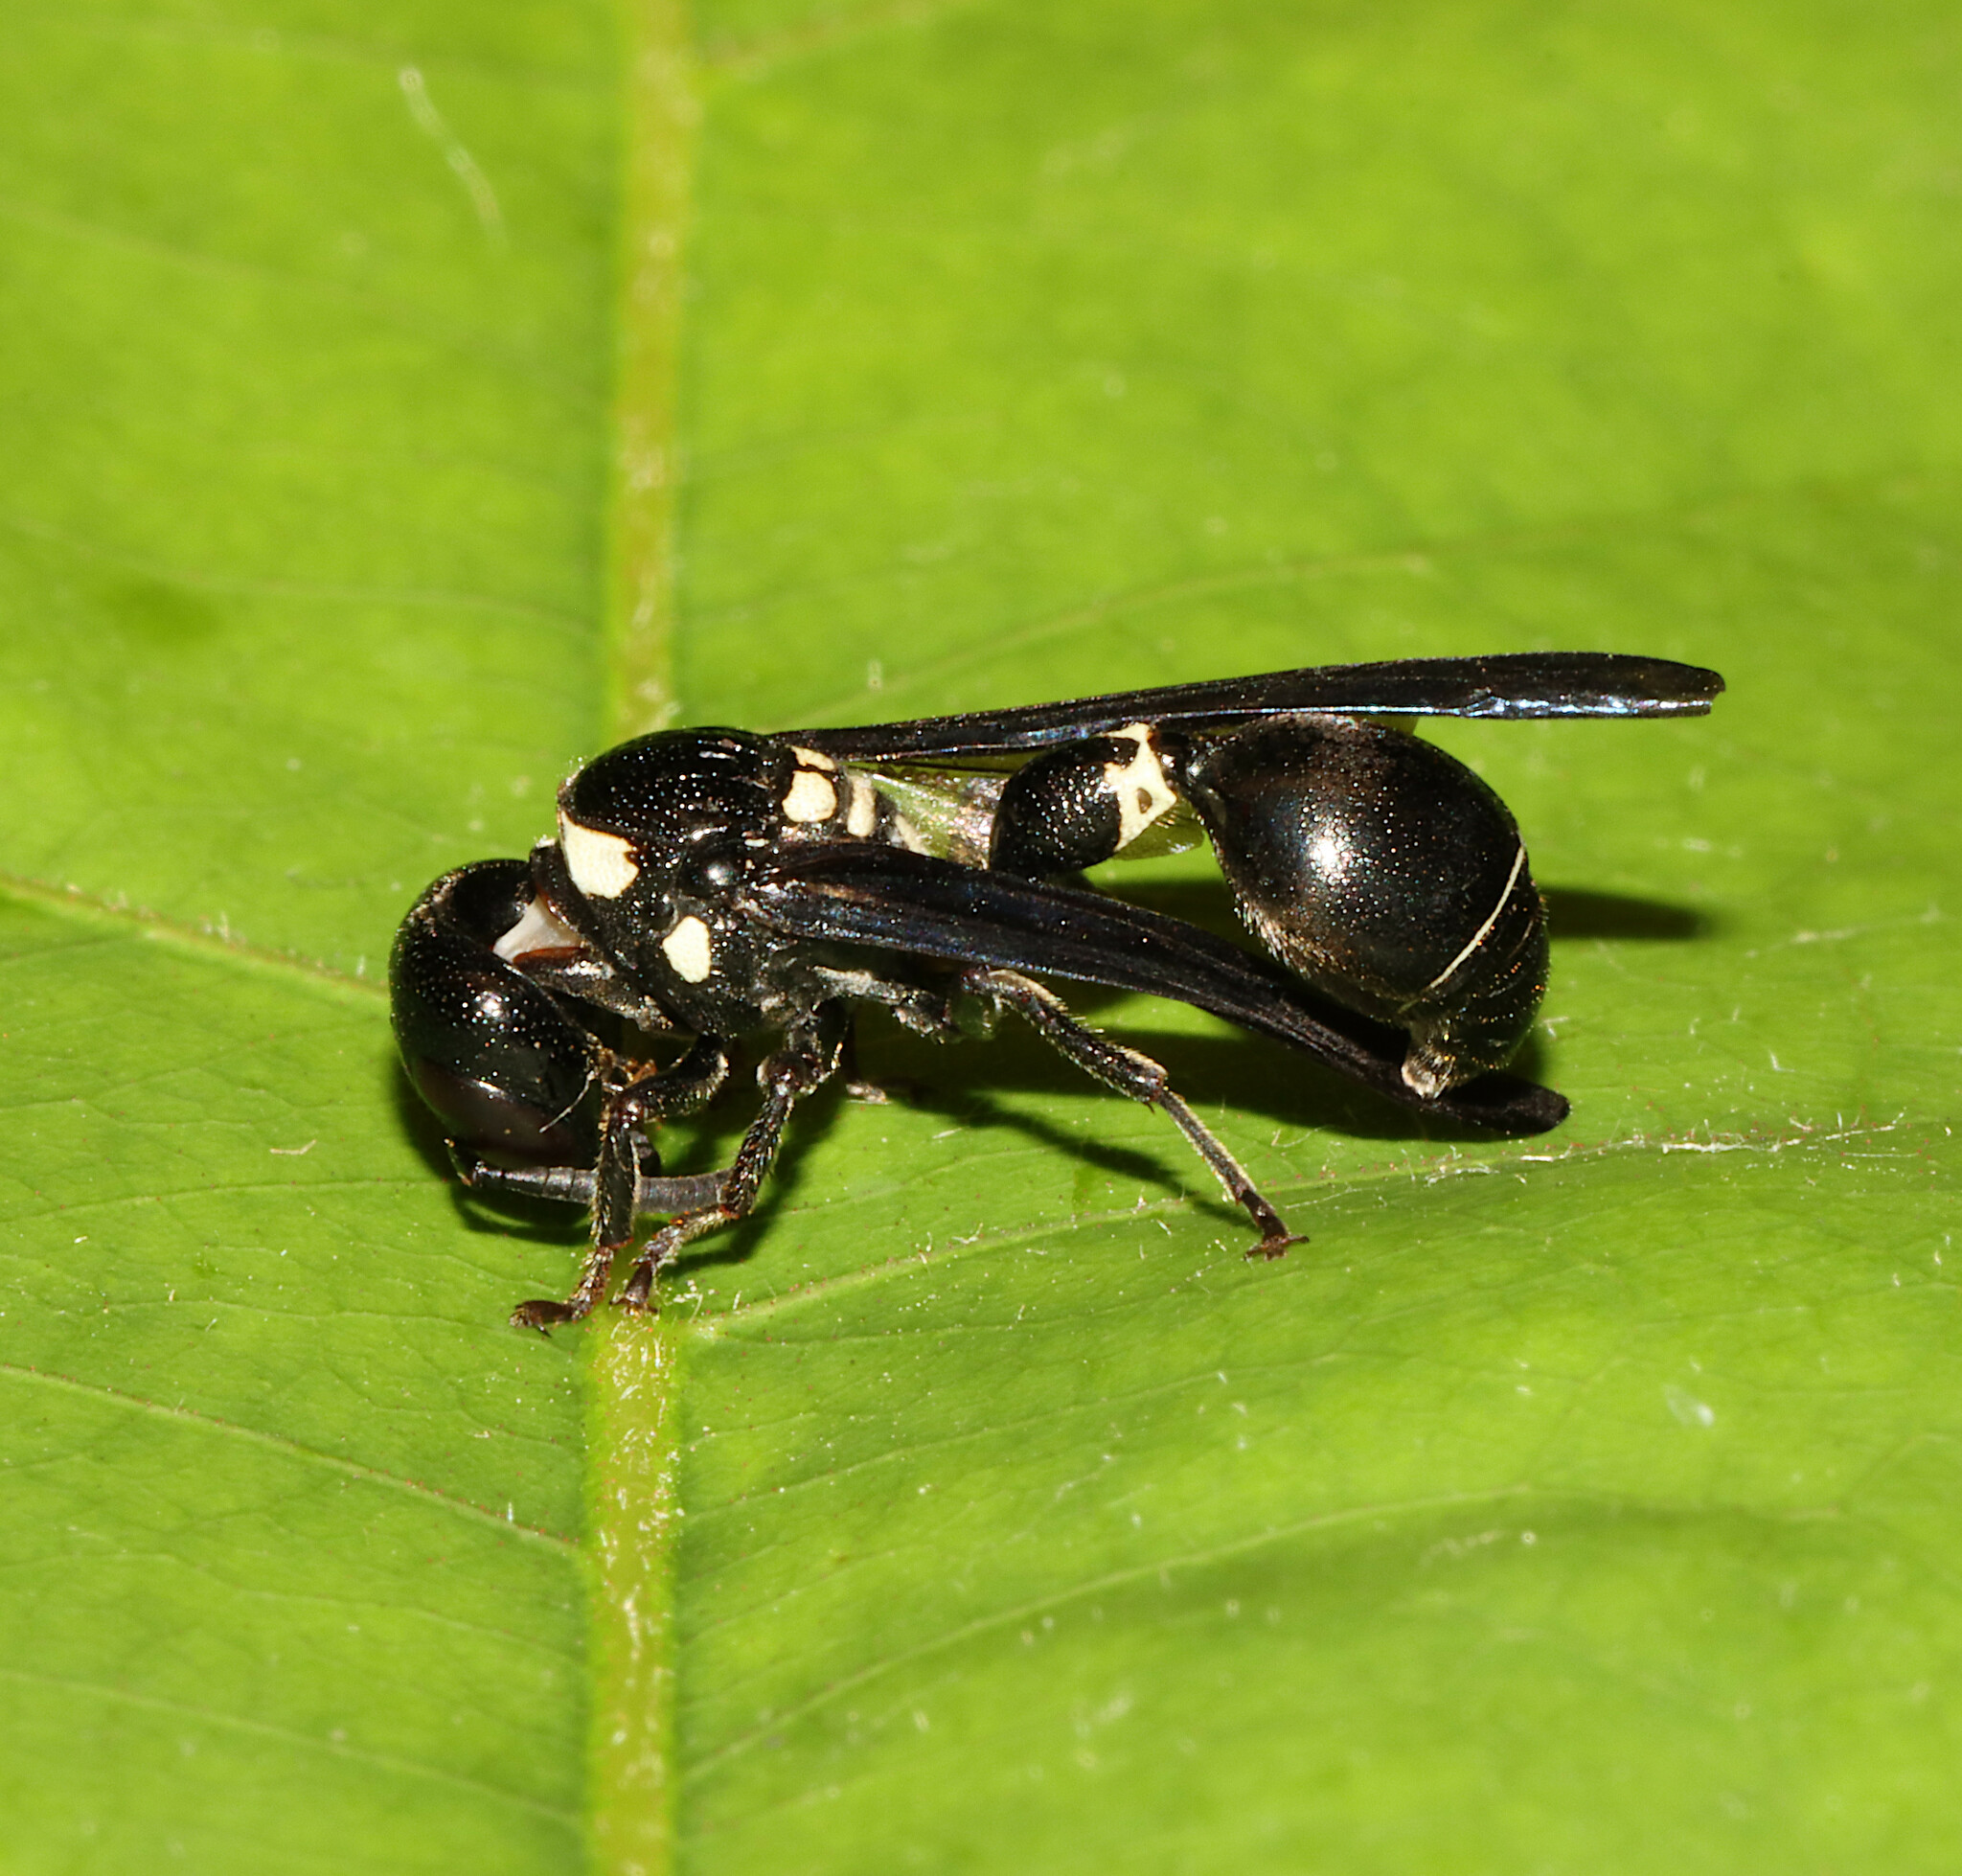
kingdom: Animalia
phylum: Arthropoda
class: Insecta
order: Hymenoptera
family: Eumenidae
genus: Zethus
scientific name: Zethus spinipes
